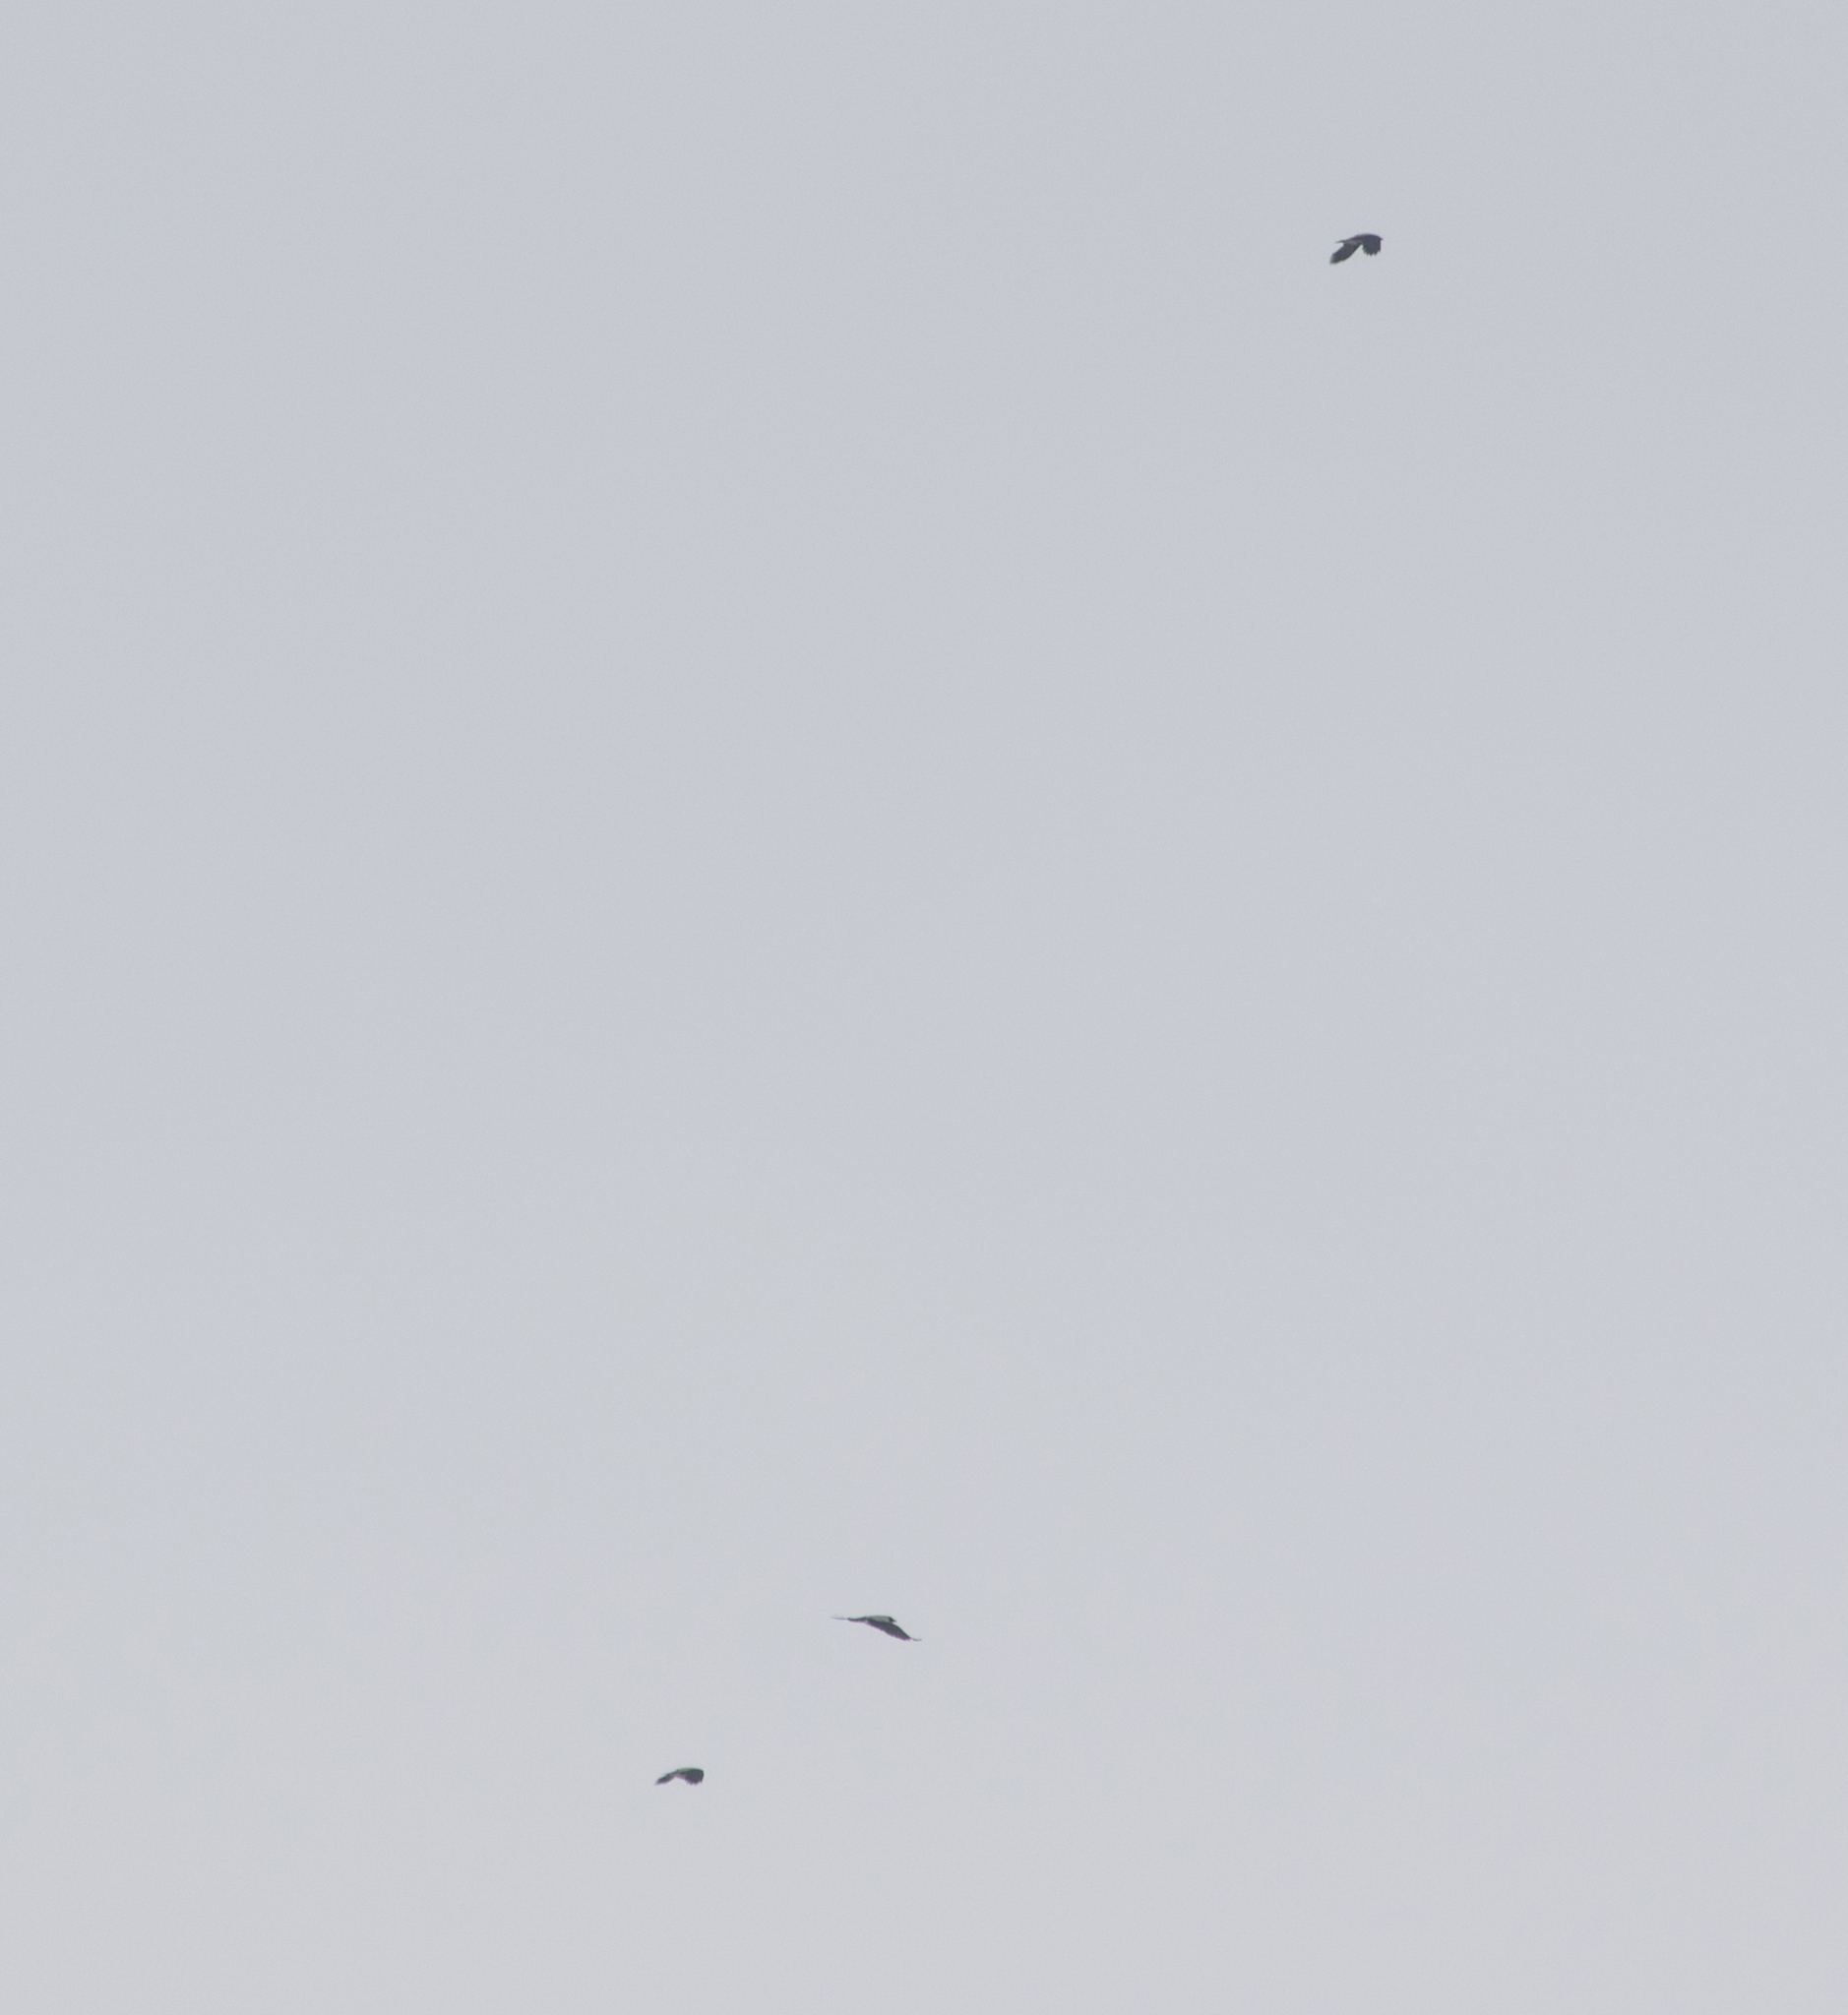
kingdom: Animalia
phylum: Chordata
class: Aves
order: Passeriformes
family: Corvidae
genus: Corvus
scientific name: Corvus cornix
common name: Hooded crow
